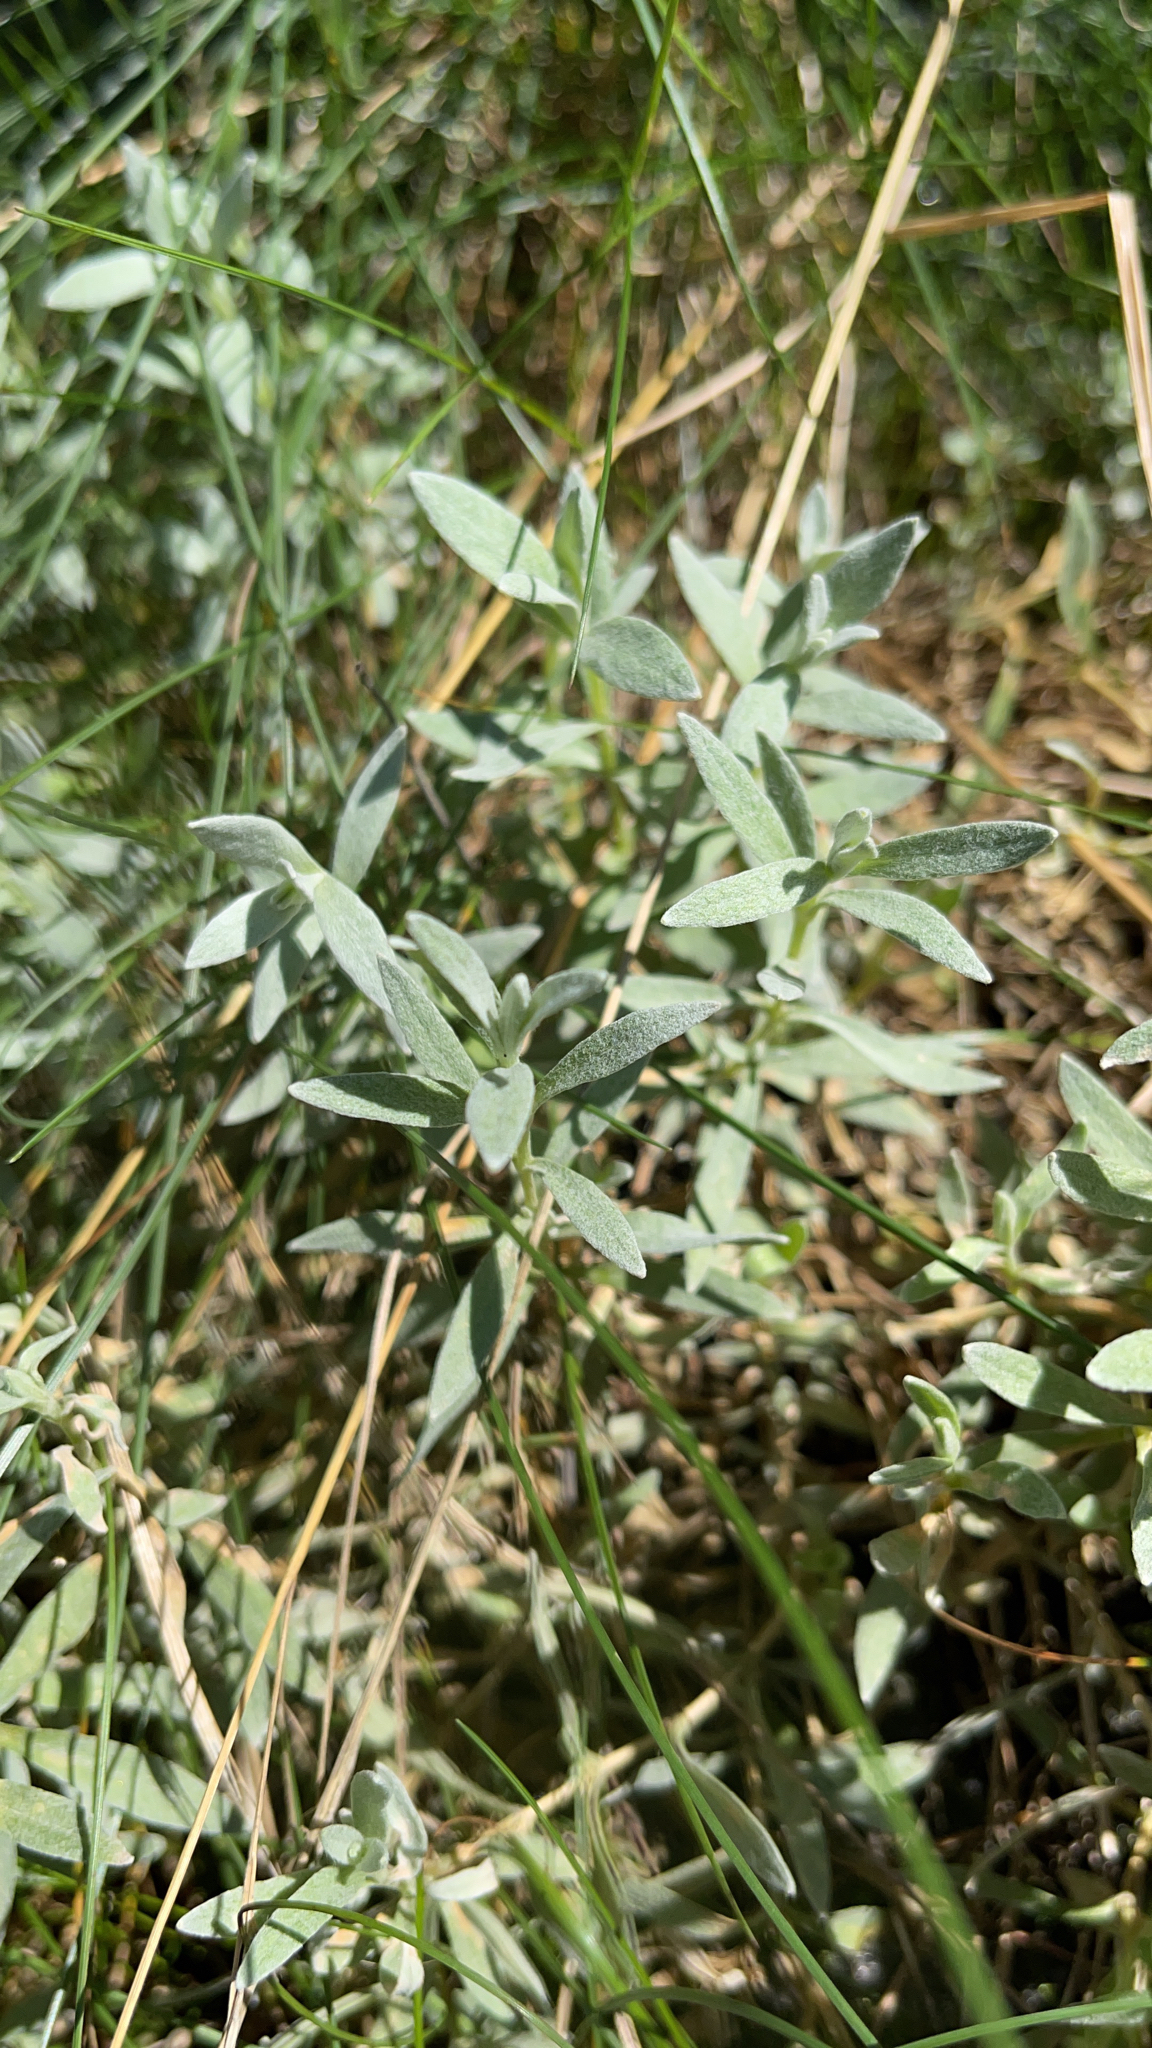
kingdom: Plantae
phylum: Tracheophyta
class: Magnoliopsida
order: Caryophyllales
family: Caryophyllaceae
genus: Cerastium
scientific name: Cerastium tomentosum
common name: Snow-in-summer
